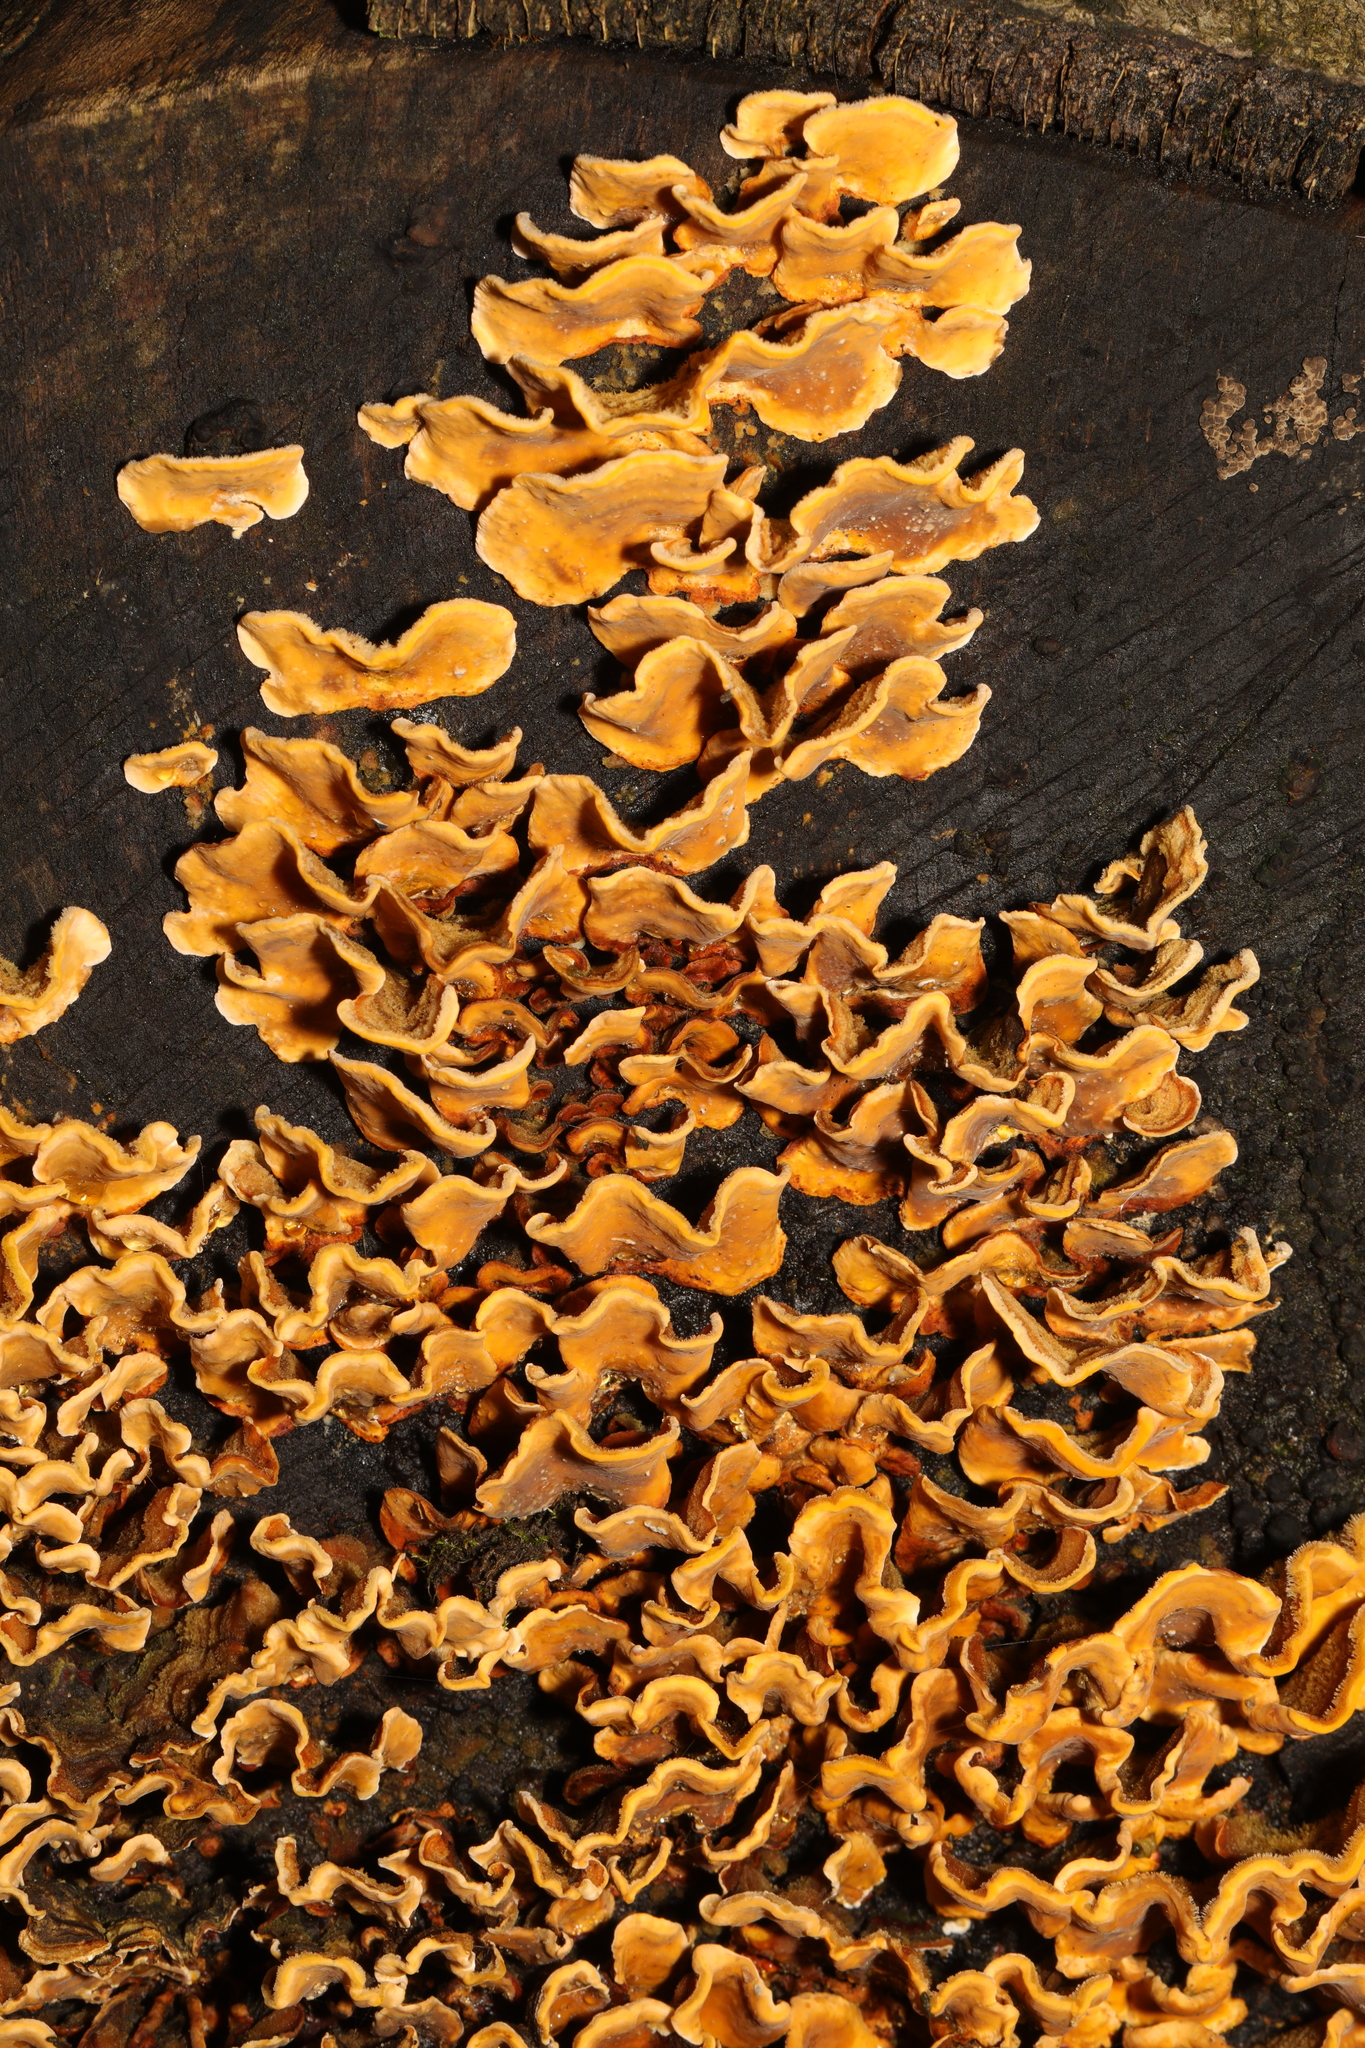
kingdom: Fungi
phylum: Basidiomycota
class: Agaricomycetes
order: Russulales
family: Stereaceae
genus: Stereum
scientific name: Stereum hirsutum
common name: Hairy curtain crust
